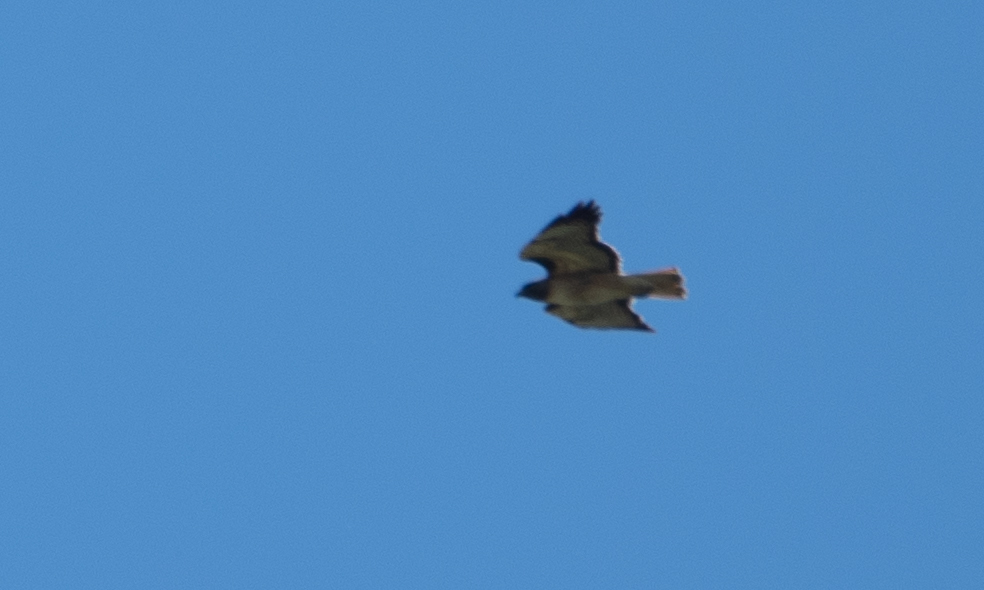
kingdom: Animalia
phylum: Chordata
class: Aves
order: Accipitriformes
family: Accipitridae
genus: Buteo
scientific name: Buteo jamaicensis
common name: Red-tailed hawk
